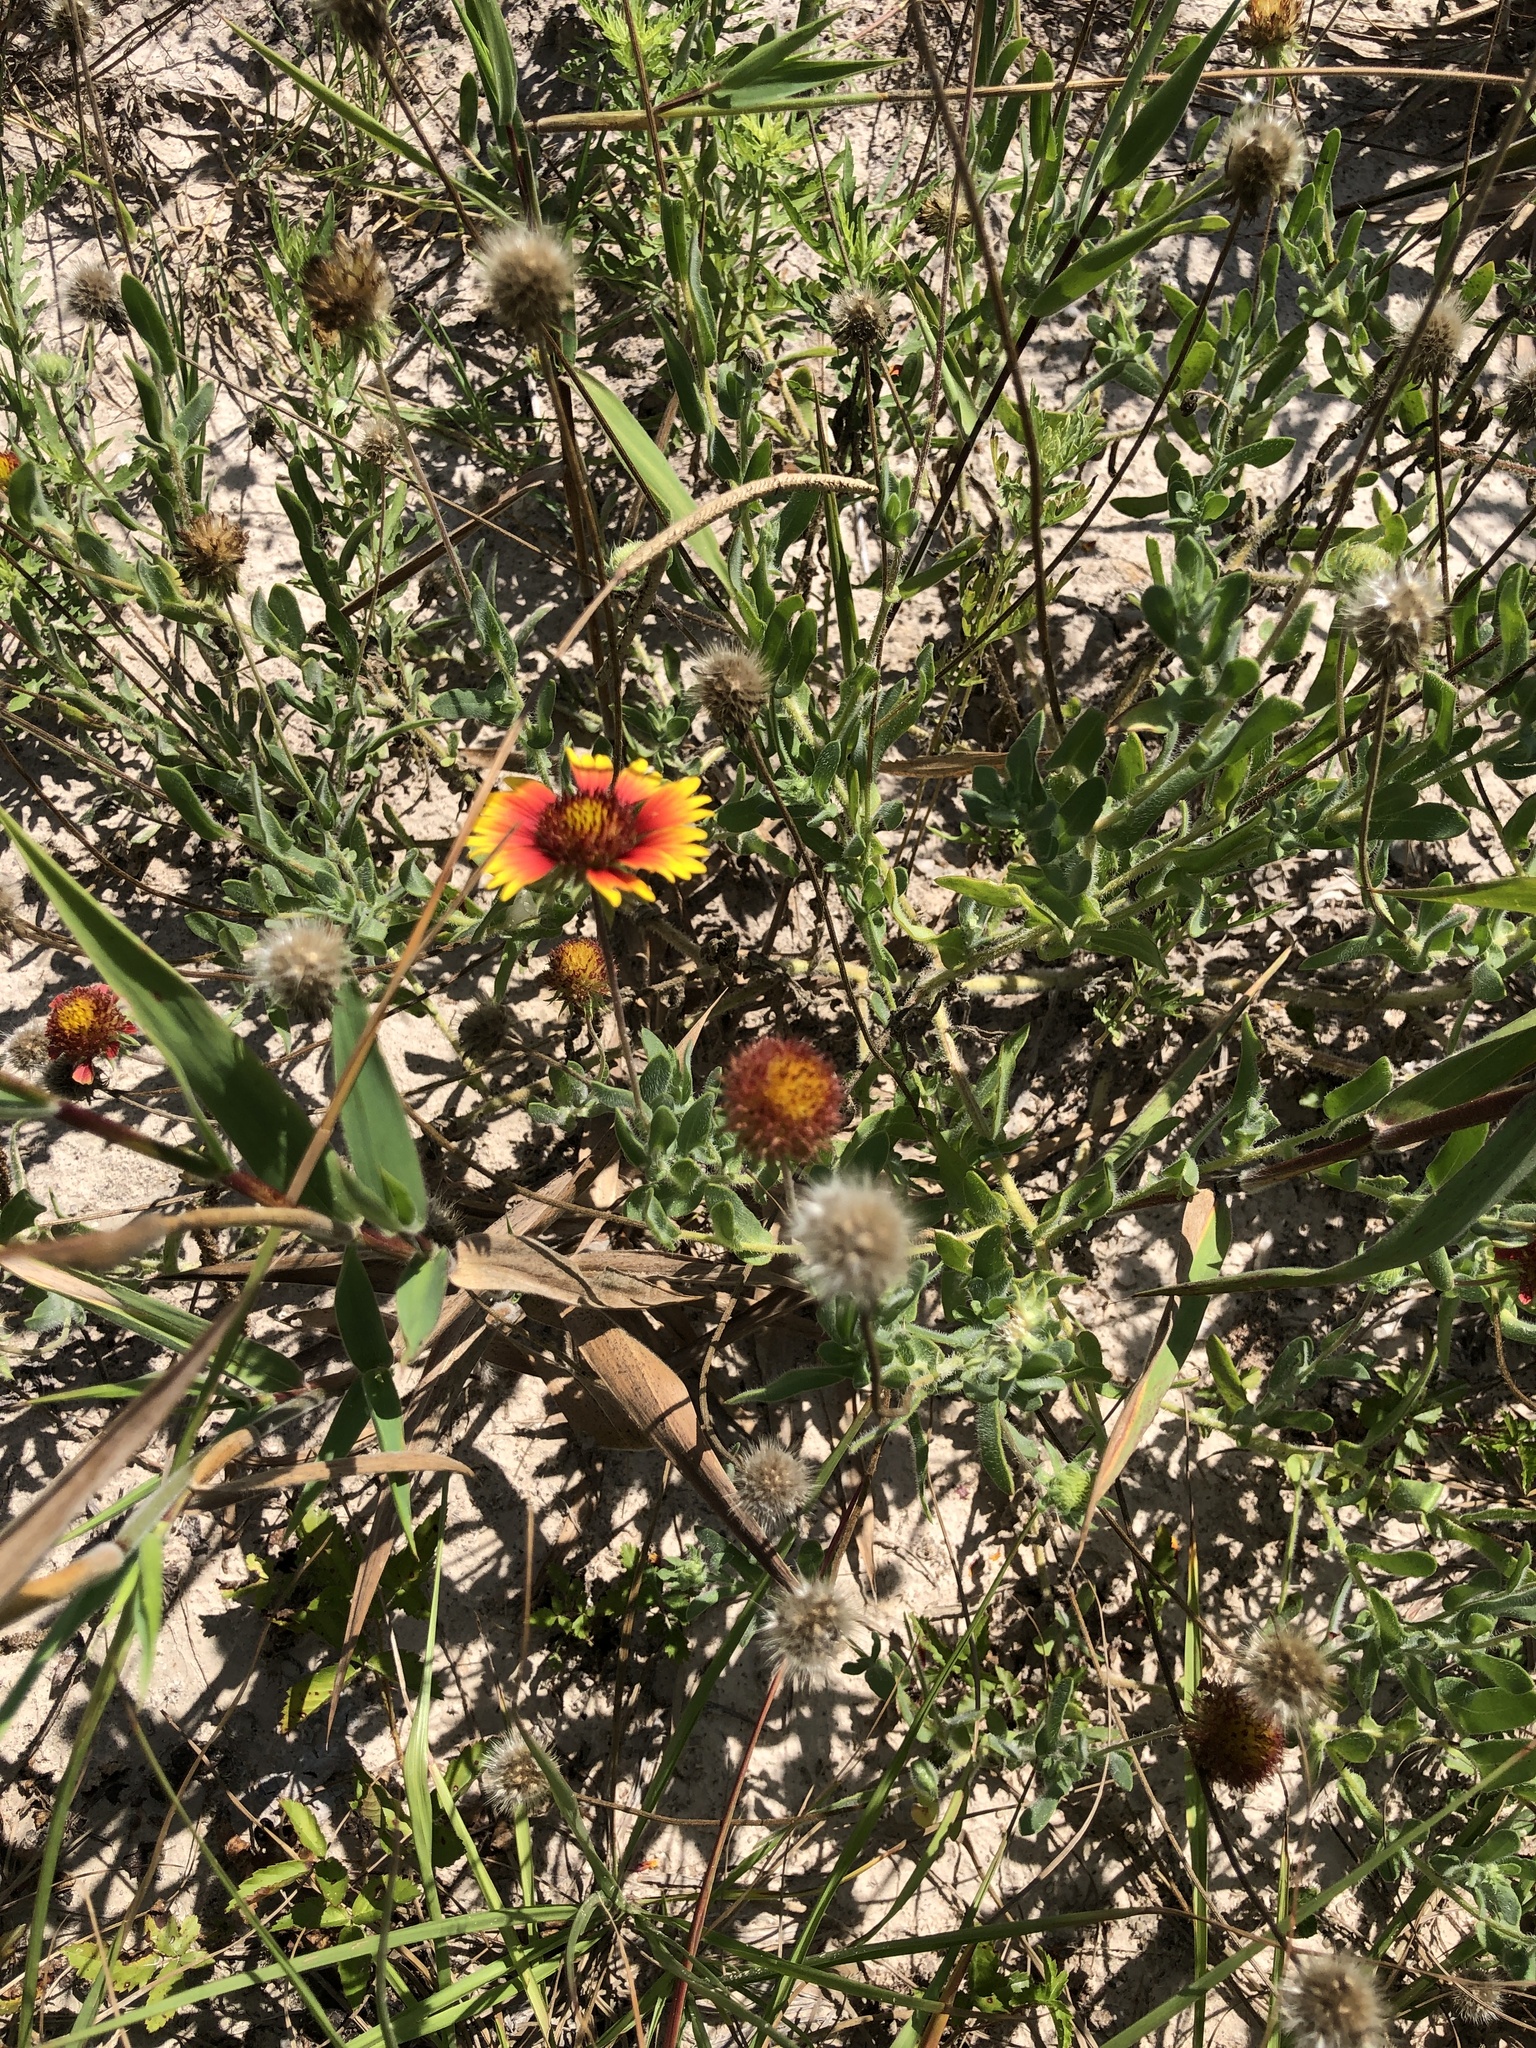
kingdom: Plantae
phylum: Tracheophyta
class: Magnoliopsida
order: Asterales
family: Asteraceae
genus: Gaillardia
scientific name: Gaillardia pulchella
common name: Firewheel
